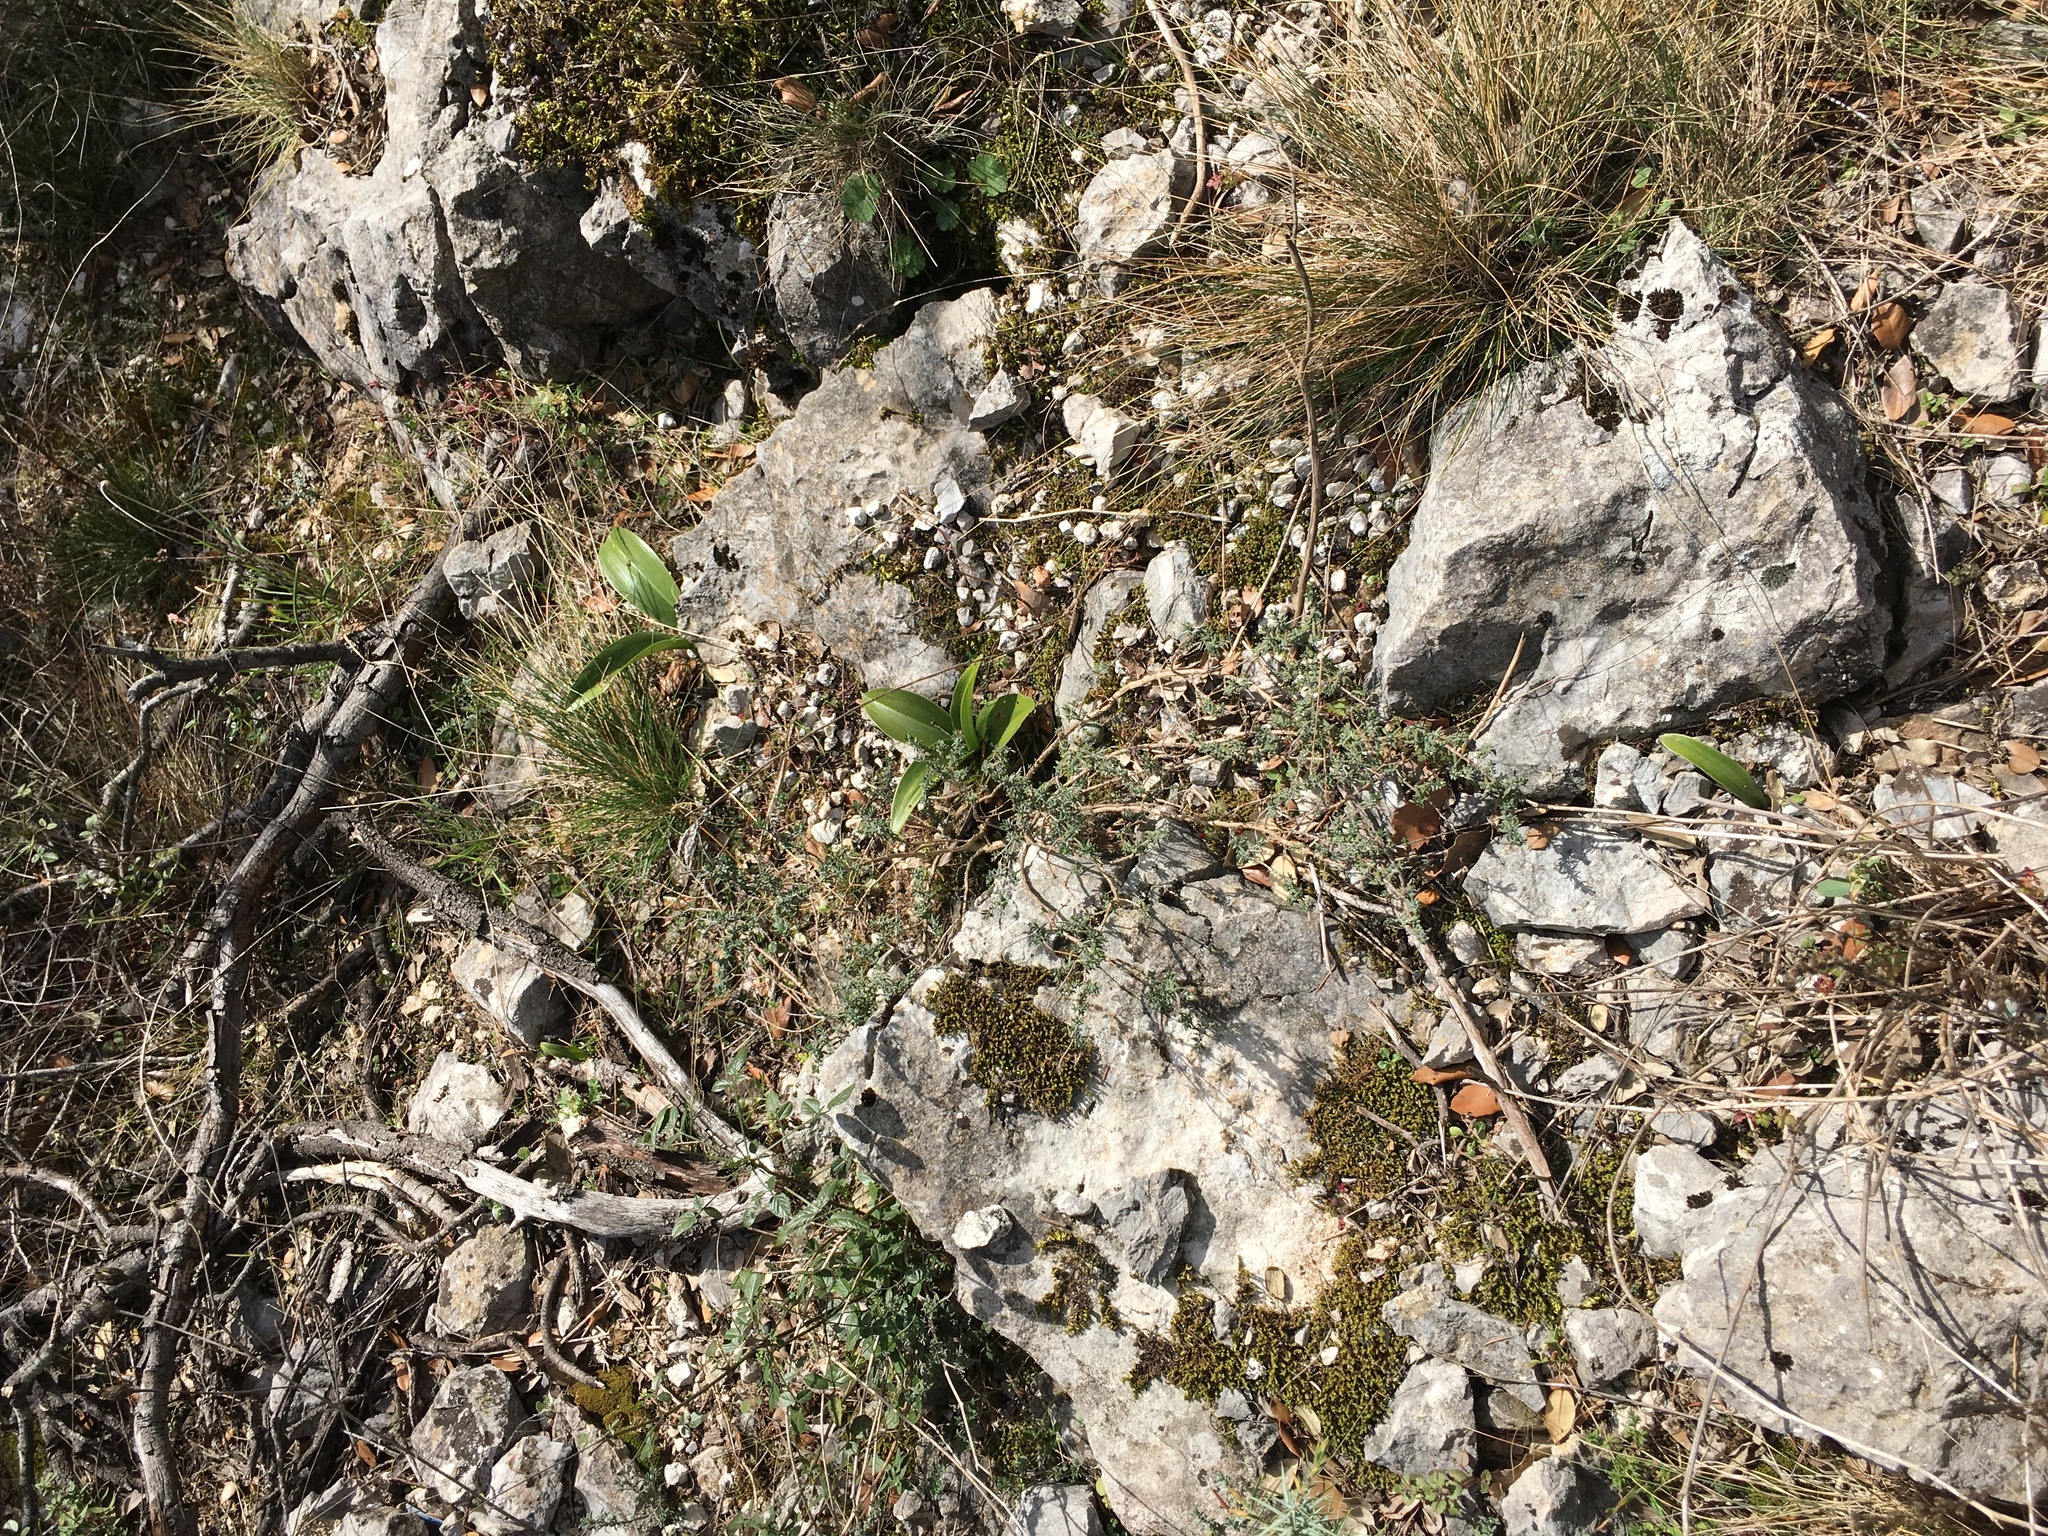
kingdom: Plantae
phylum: Tracheophyta
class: Liliopsida
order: Asparagales
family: Orchidaceae
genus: Himantoglossum
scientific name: Himantoglossum robertianum
